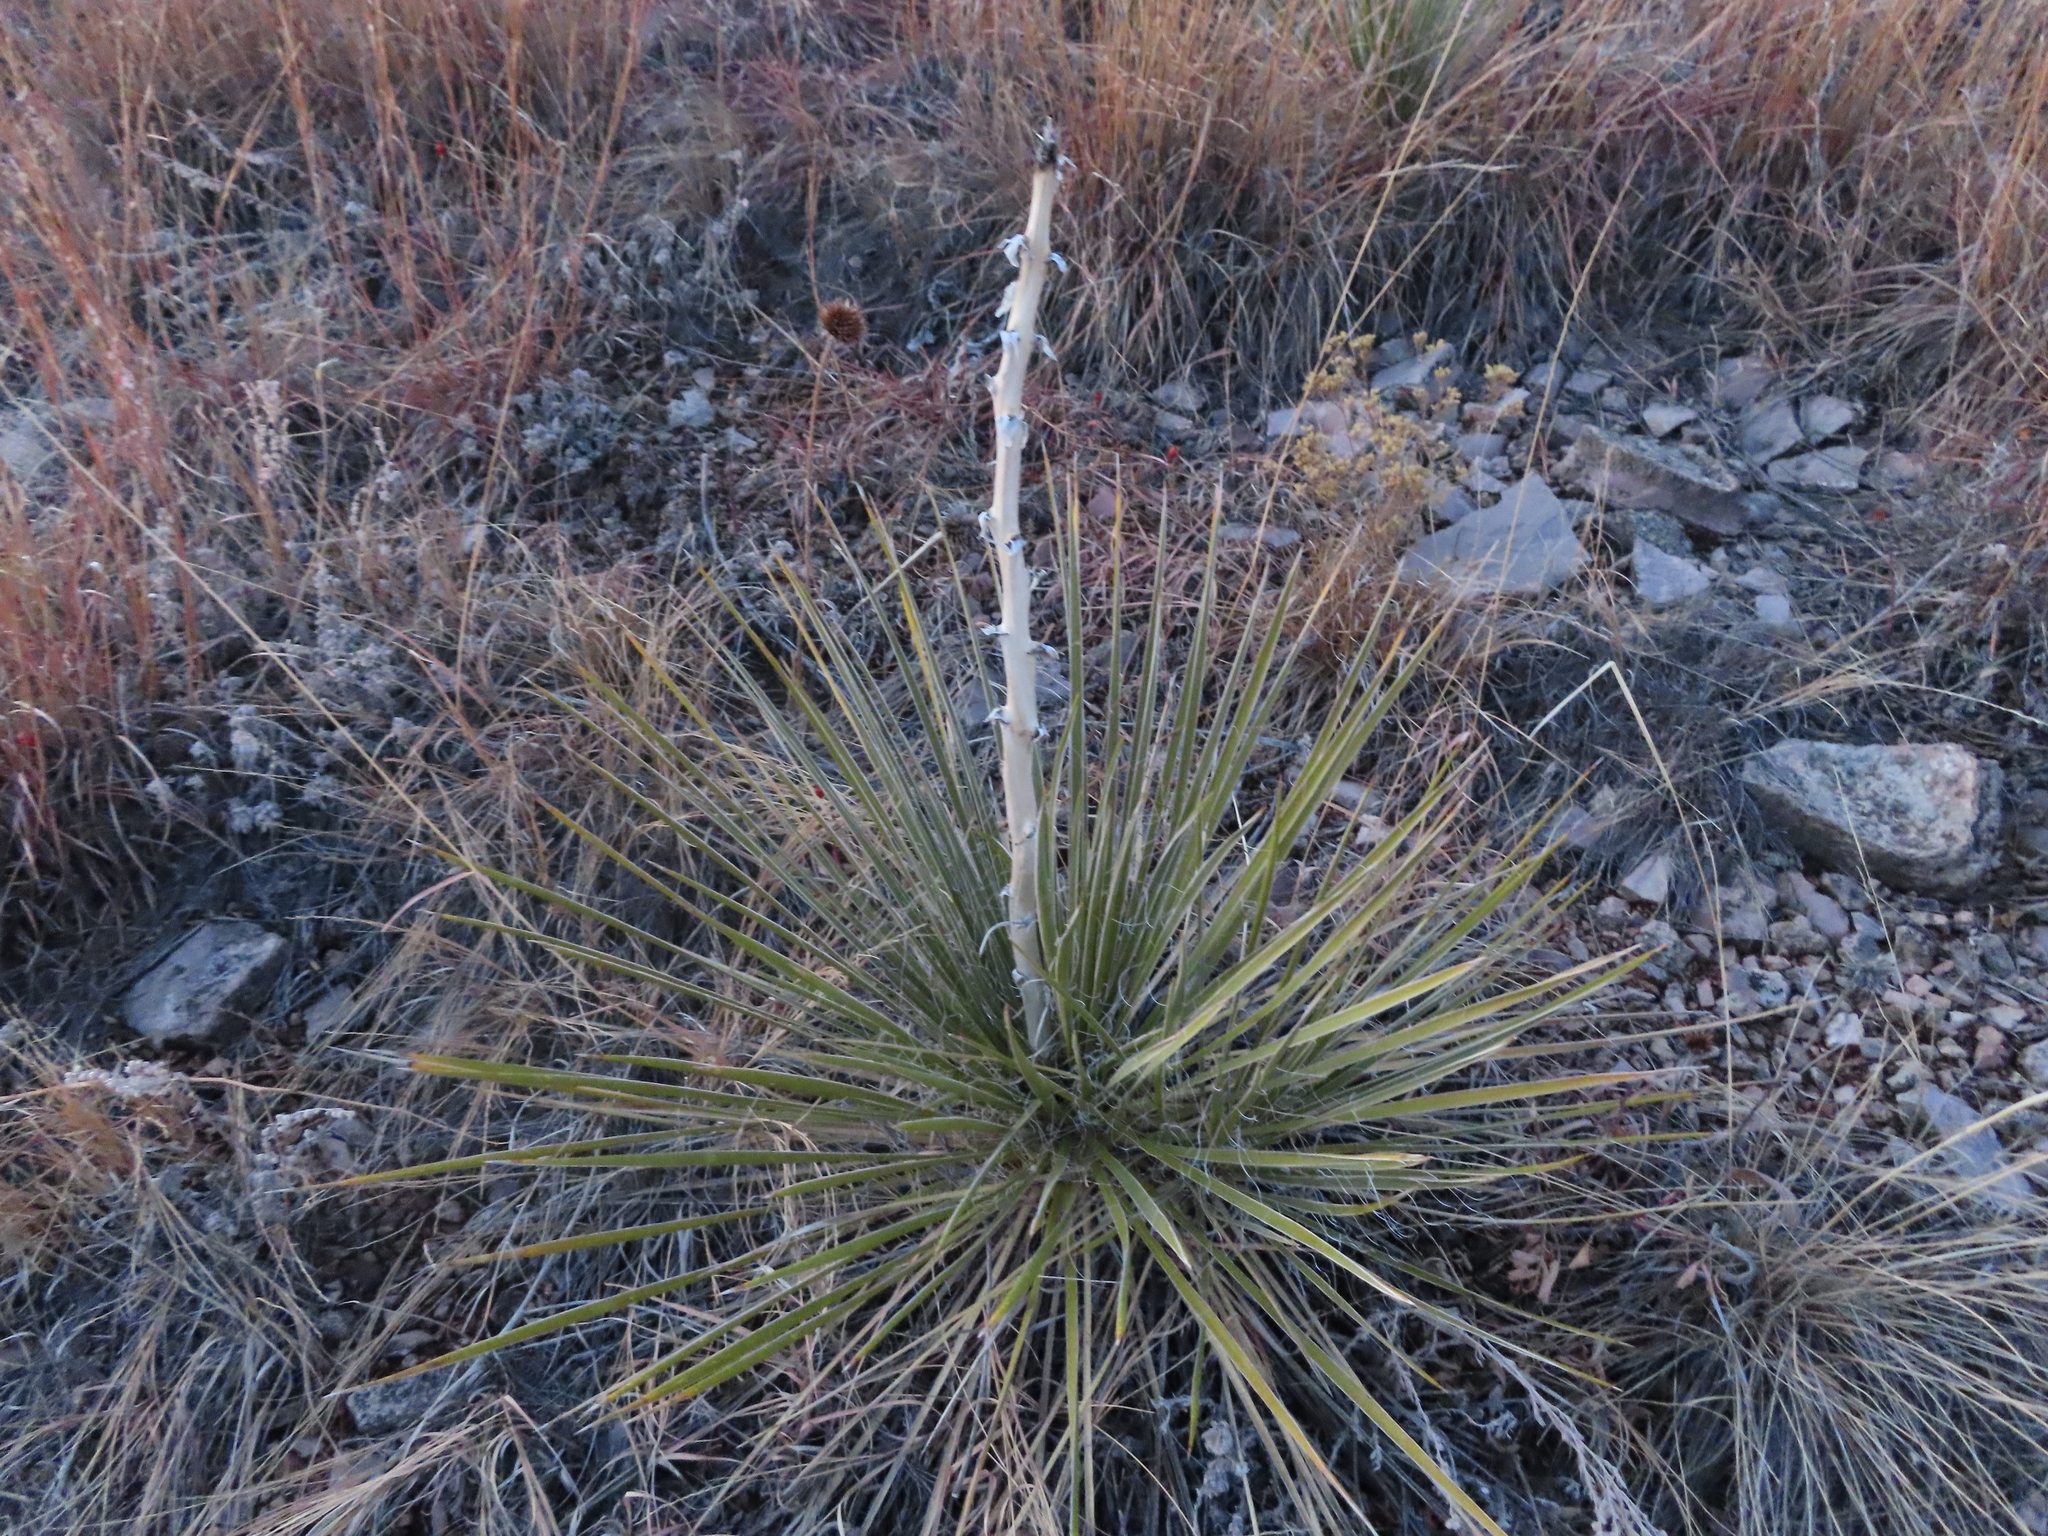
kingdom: Plantae
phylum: Tracheophyta
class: Liliopsida
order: Asparagales
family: Asparagaceae
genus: Yucca
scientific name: Yucca glauca
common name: Great plains yucca
